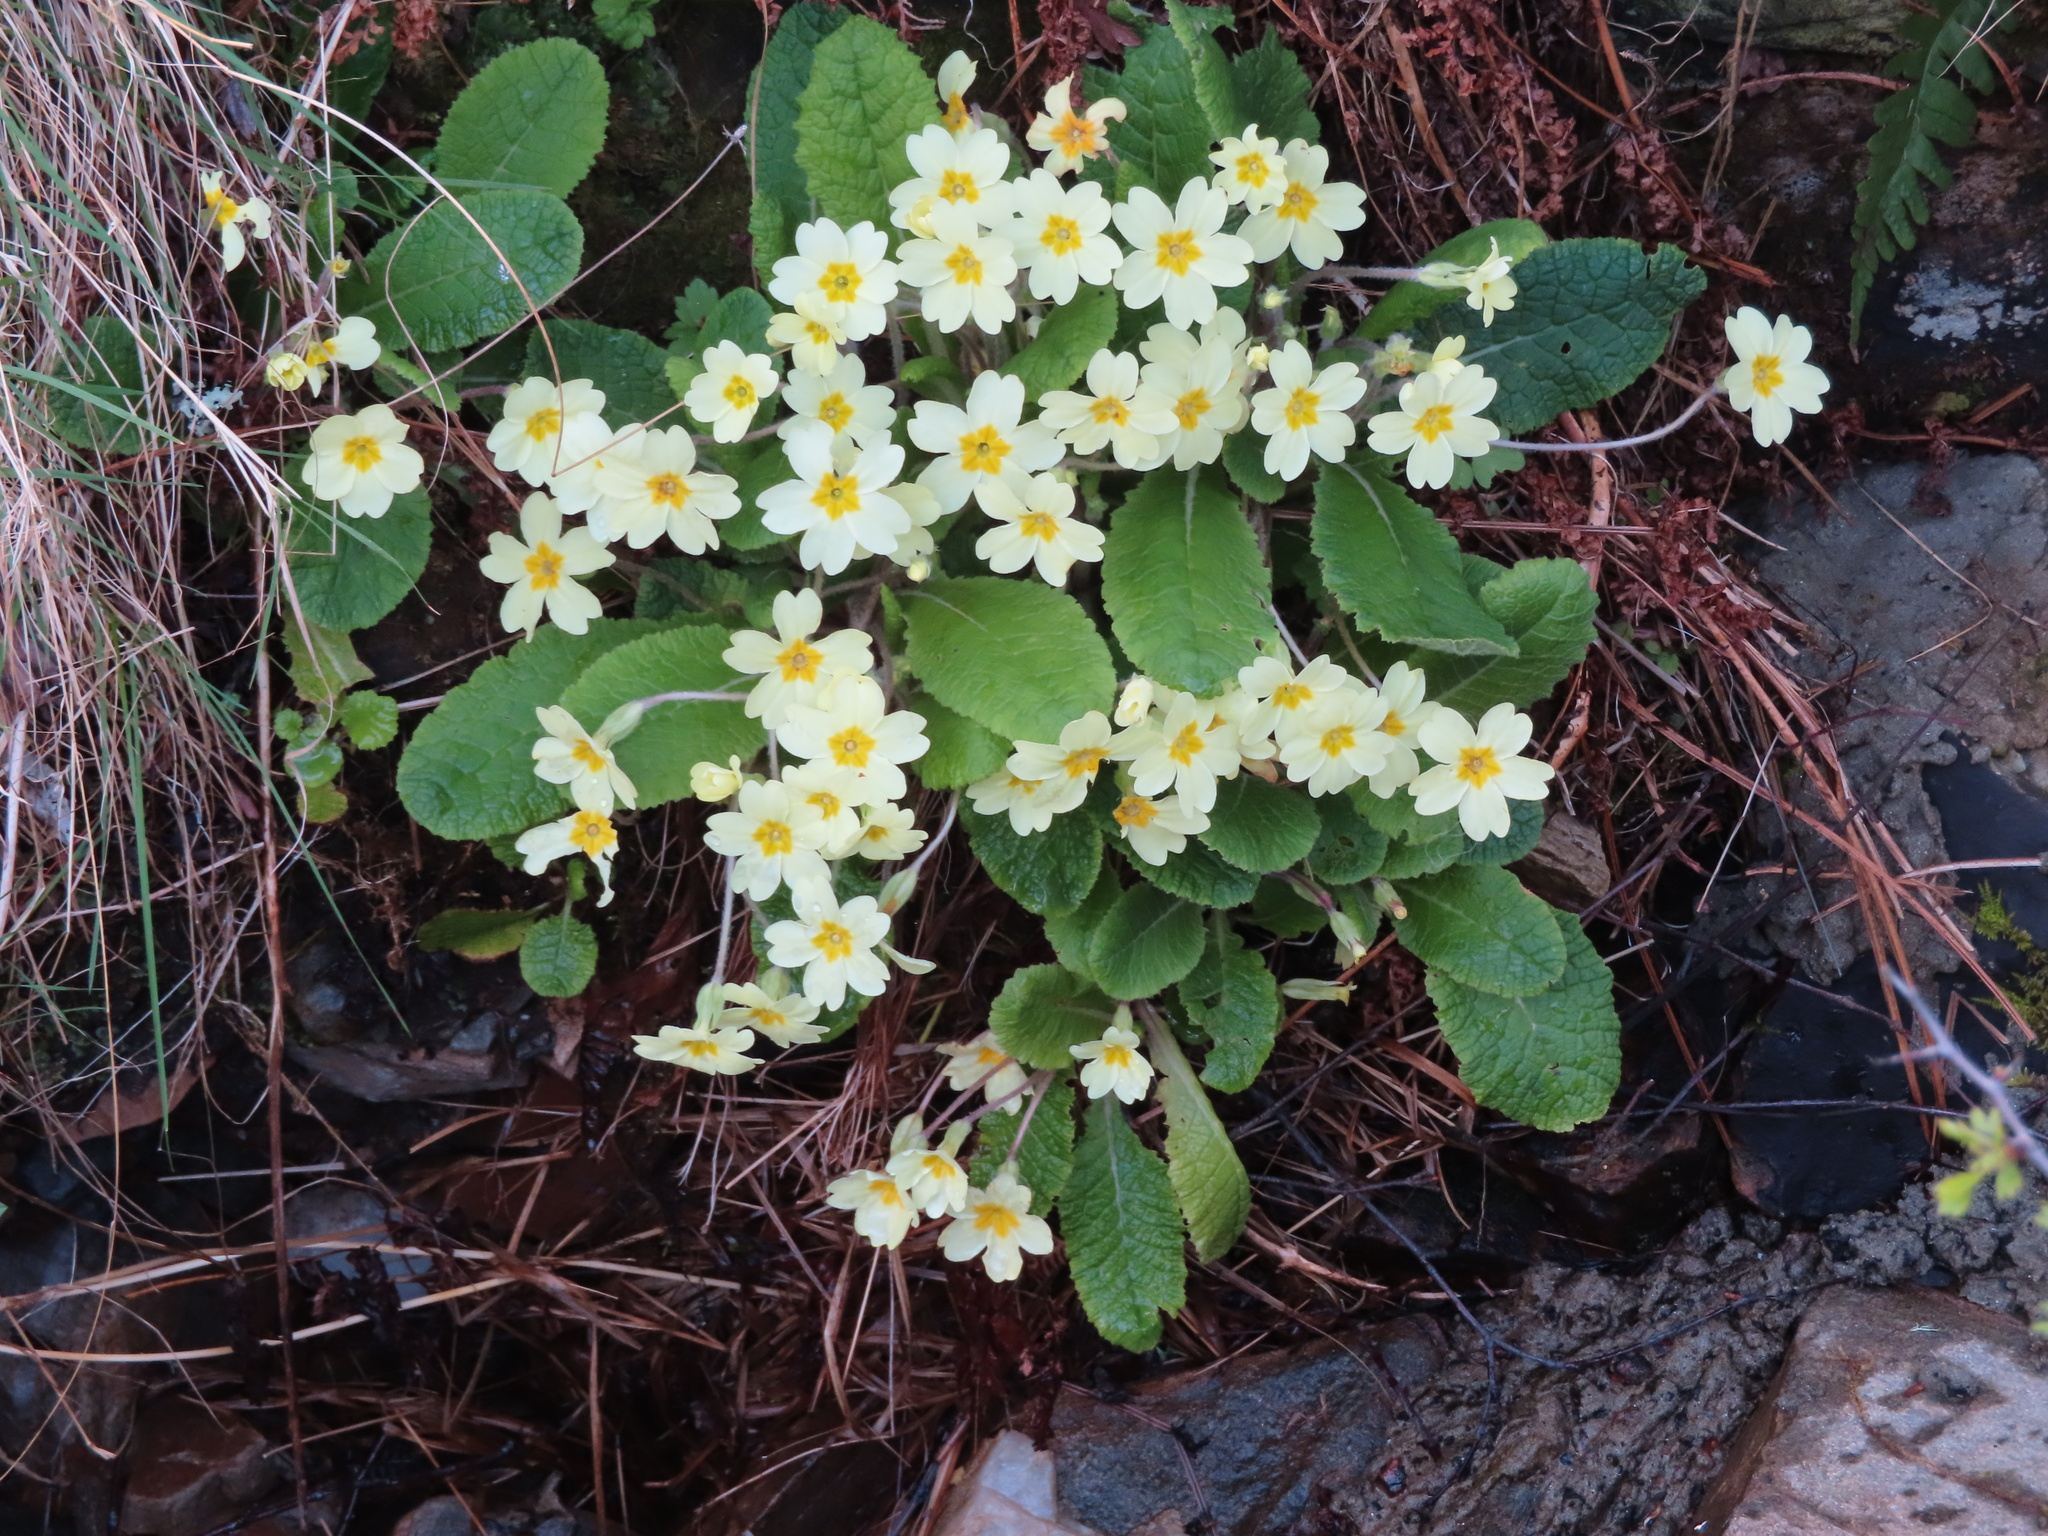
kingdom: Plantae
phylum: Tracheophyta
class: Magnoliopsida
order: Ericales
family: Primulaceae
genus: Primula
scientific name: Primula vulgaris
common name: Primrose
